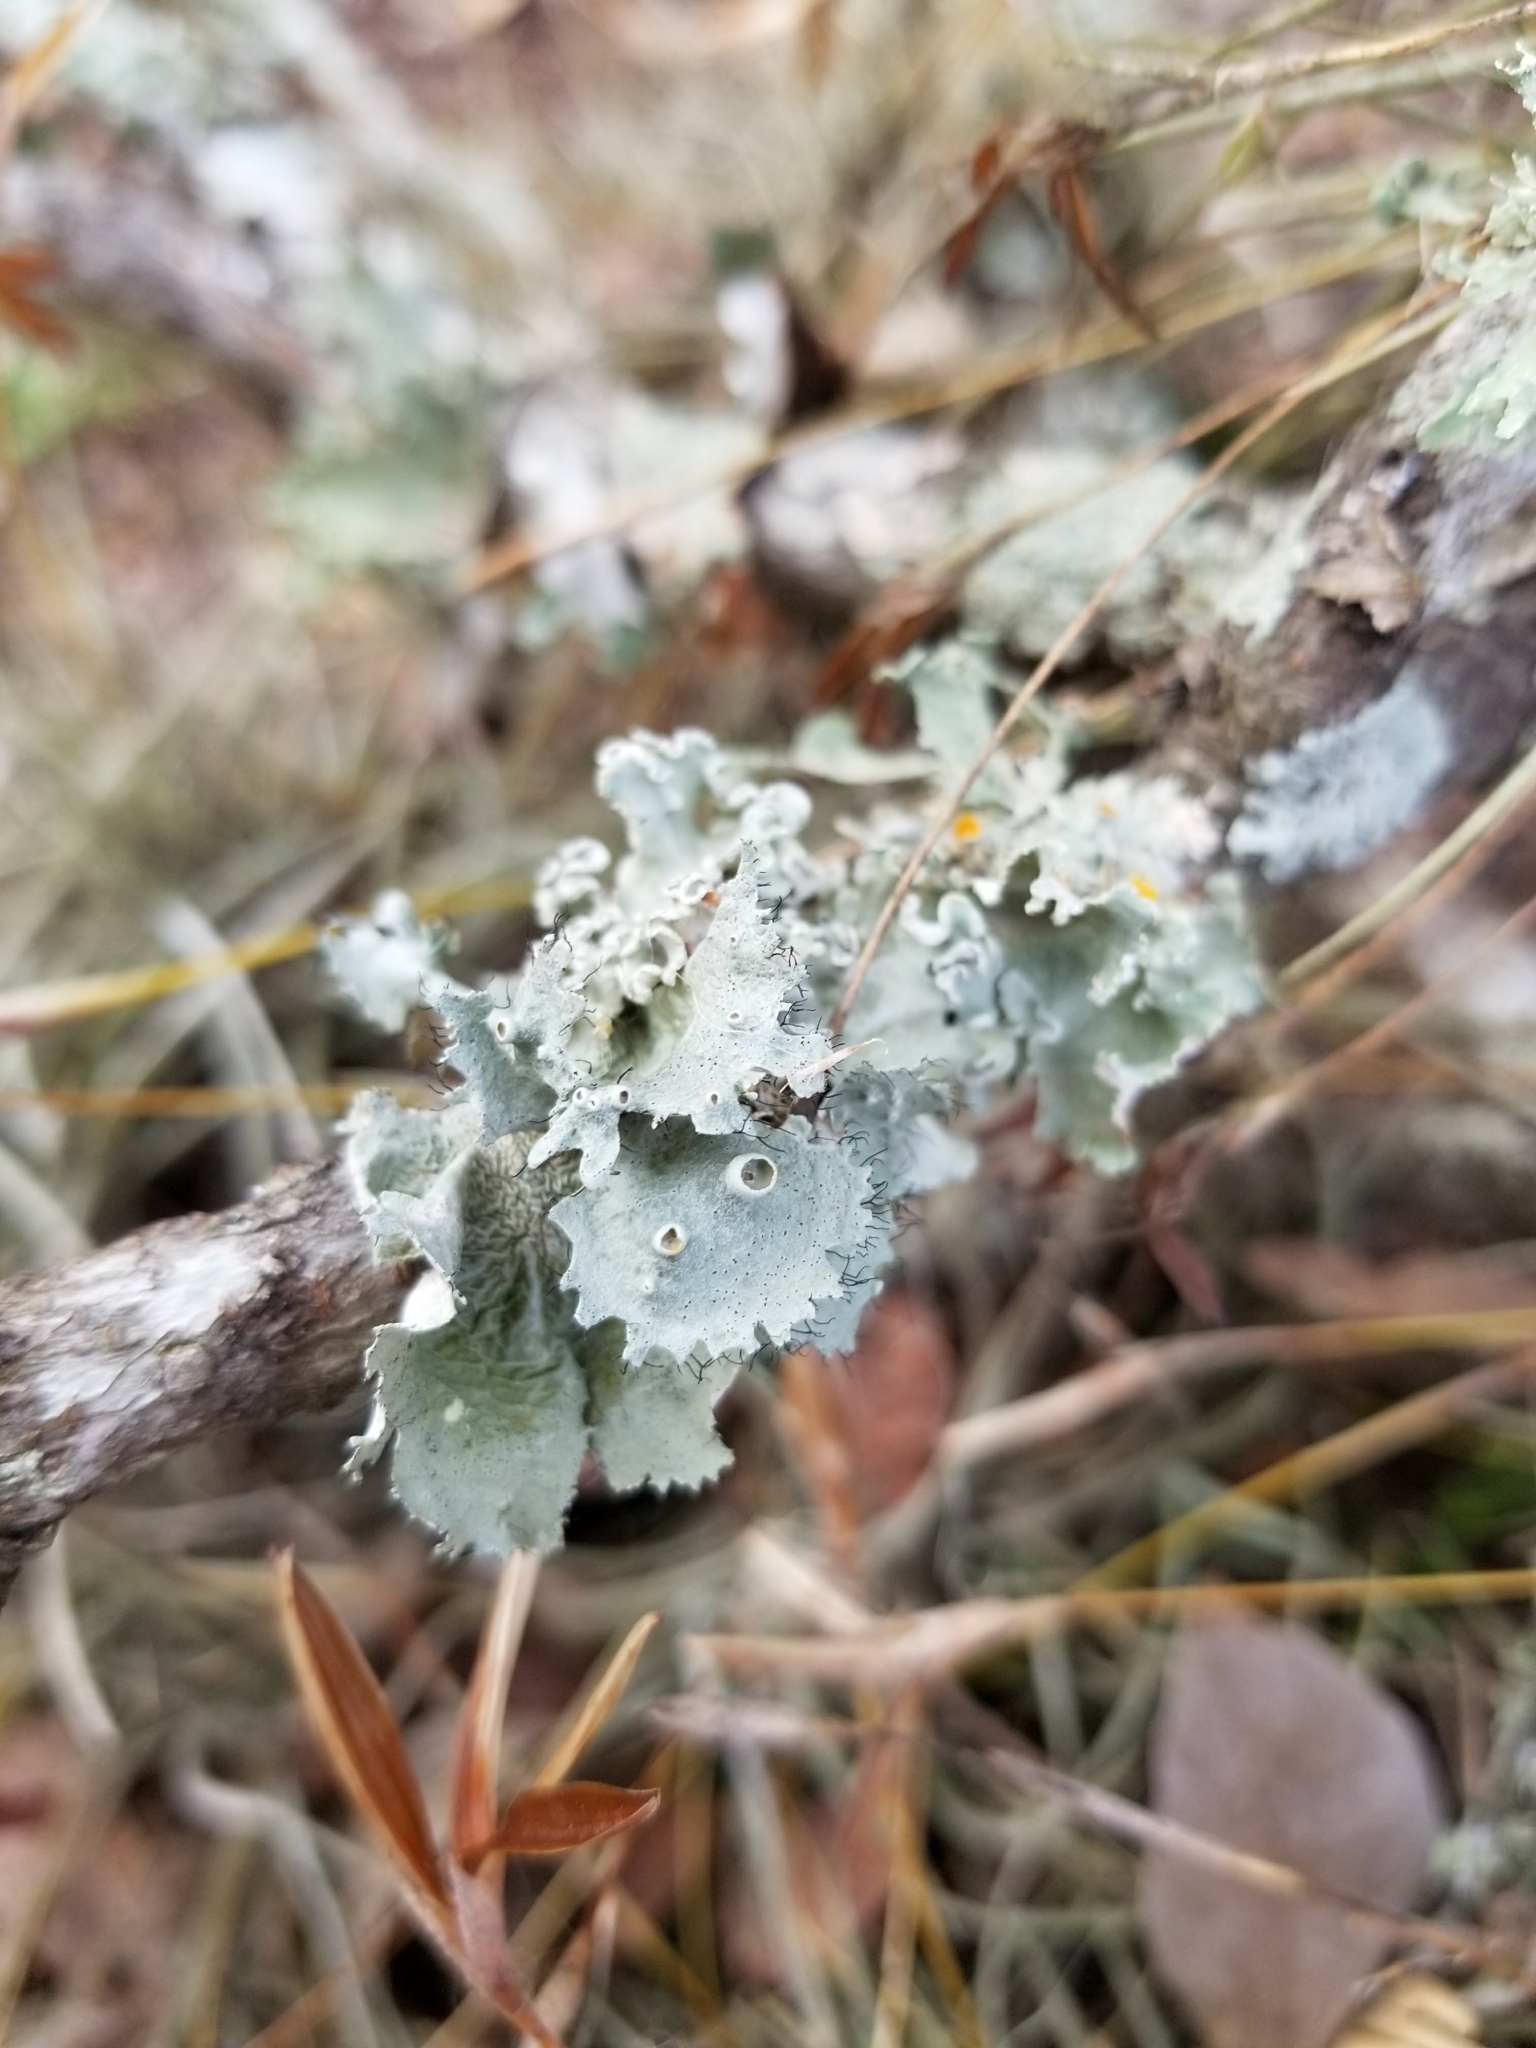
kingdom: Fungi
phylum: Ascomycota
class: Lecanoromycetes
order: Lecanorales
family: Parmeliaceae
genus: Parmotrema
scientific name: Parmotrema perforatum
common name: Perforated ruffle lichen
